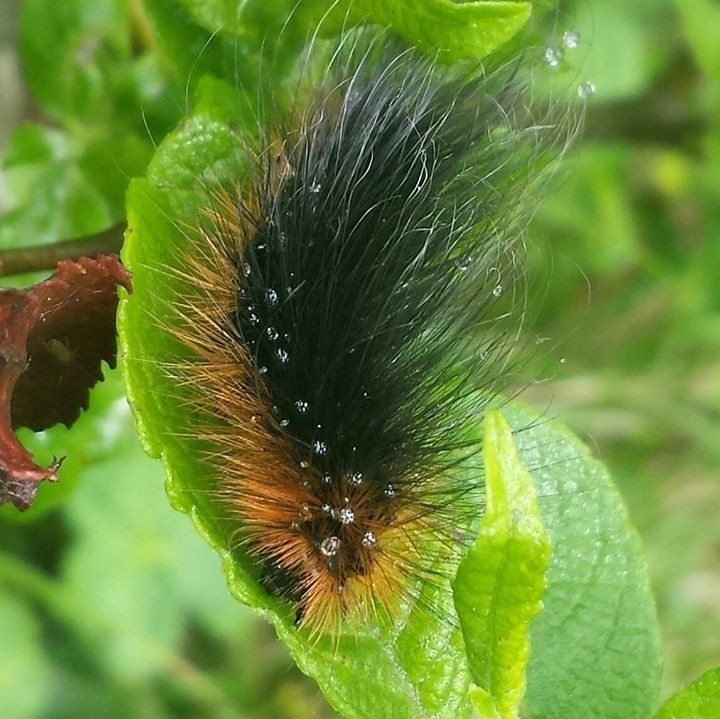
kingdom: Animalia
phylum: Arthropoda
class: Insecta
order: Lepidoptera
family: Erebidae
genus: Arctia
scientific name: Arctia caja
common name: Garden tiger
